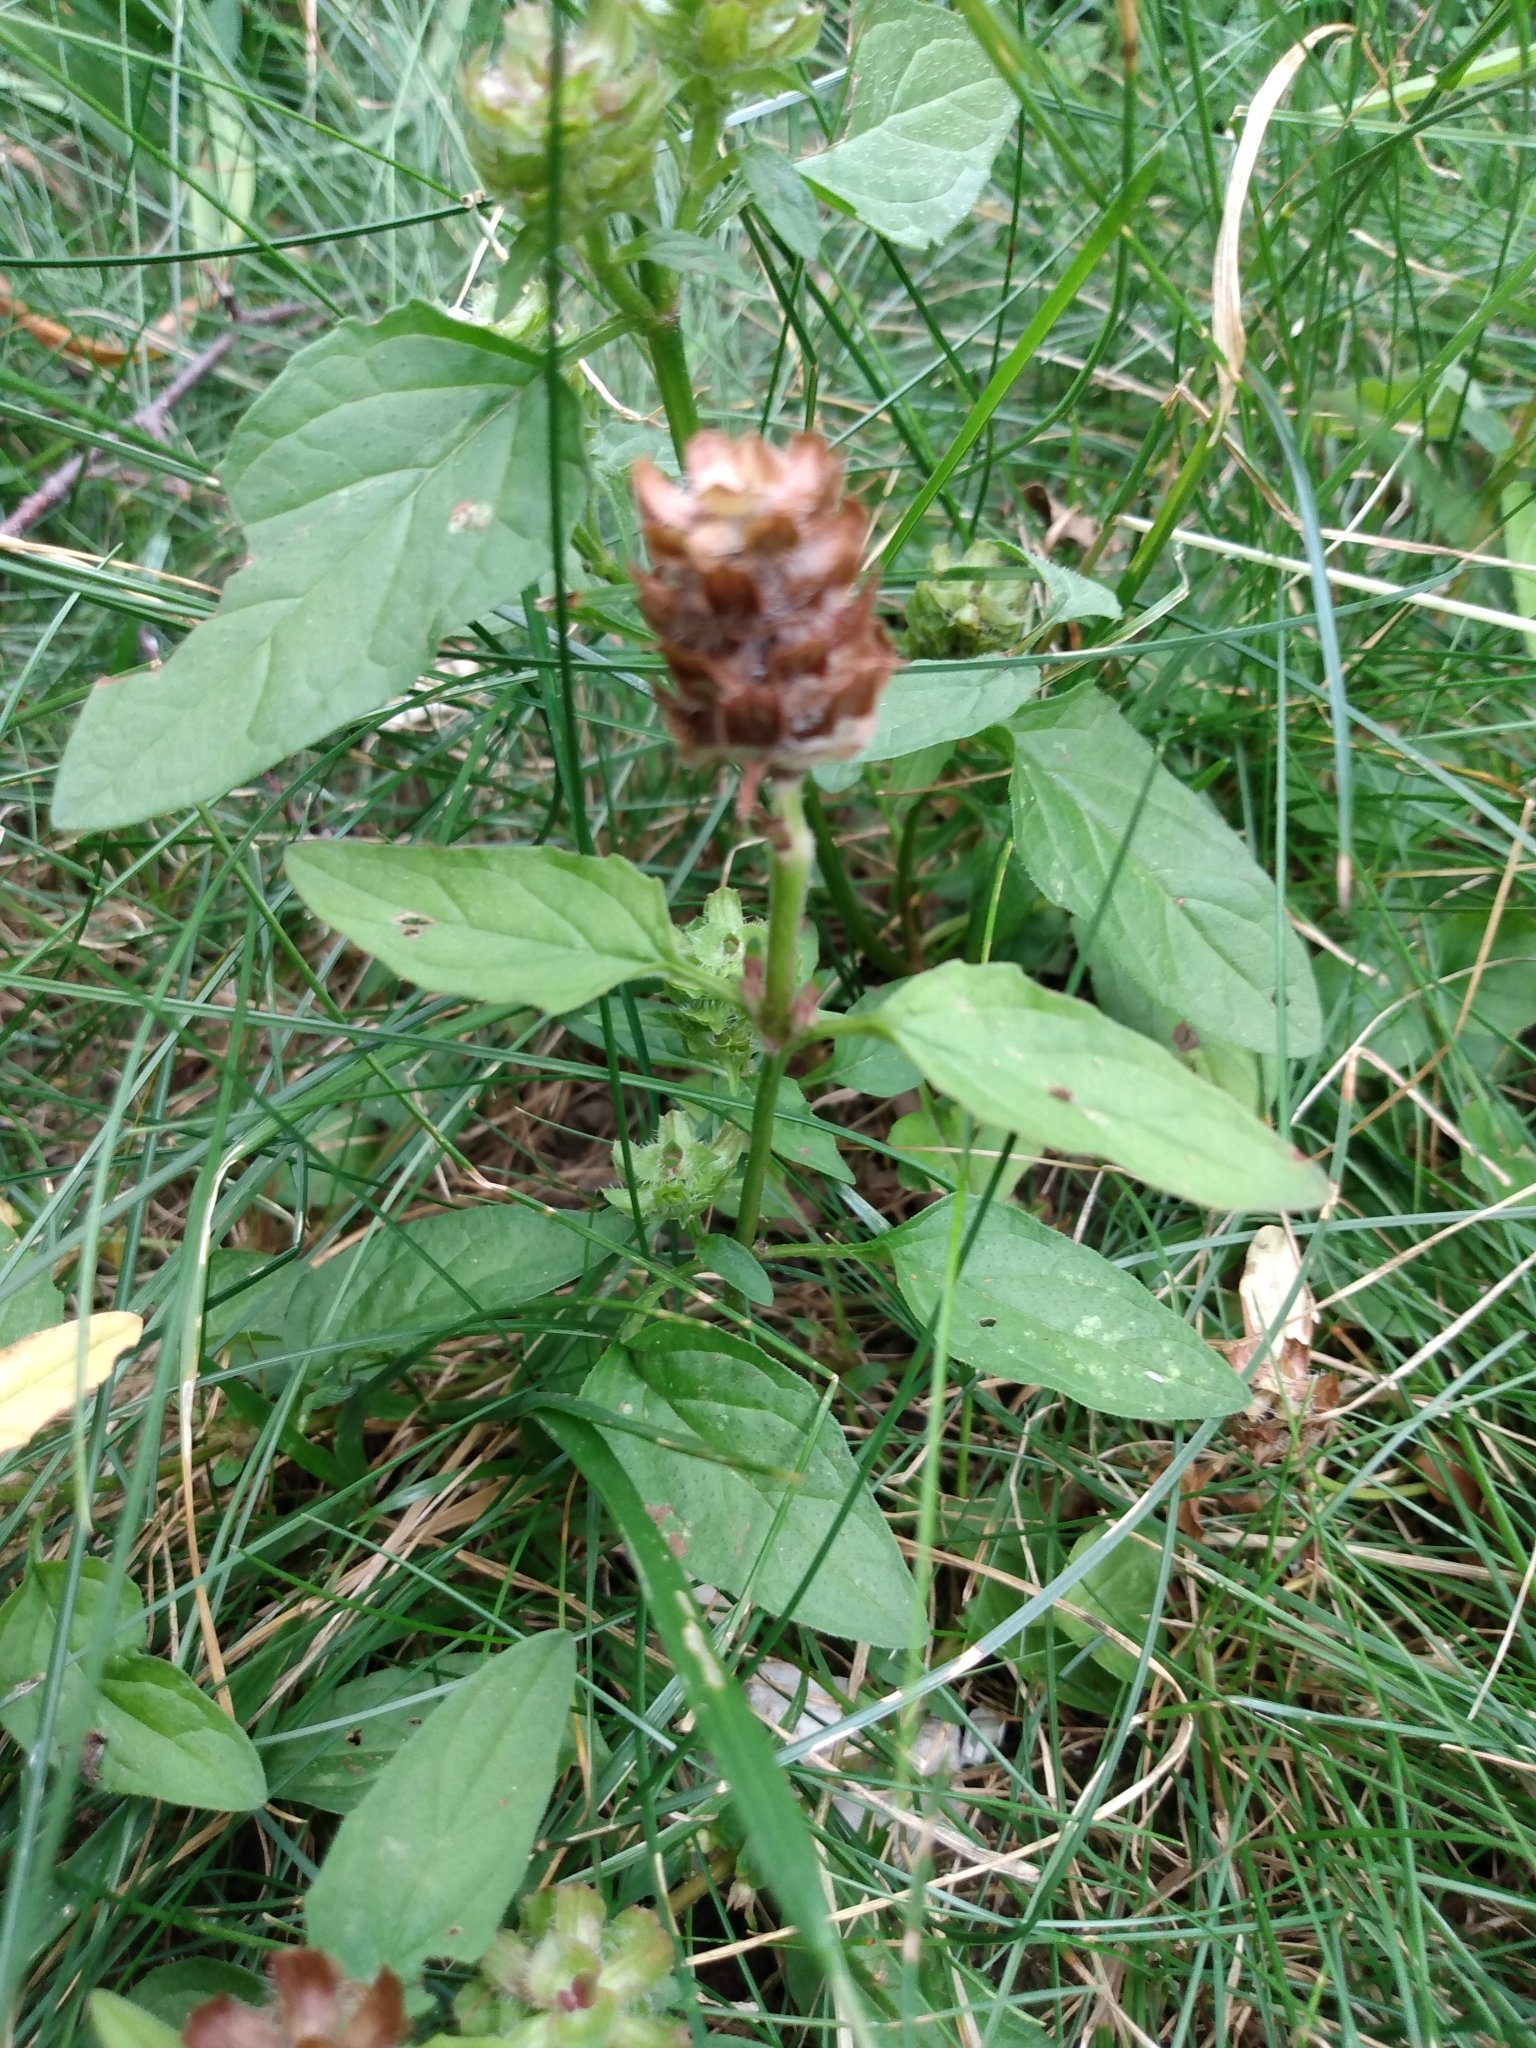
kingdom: Plantae
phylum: Tracheophyta
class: Magnoliopsida
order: Lamiales
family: Lamiaceae
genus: Prunella
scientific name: Prunella vulgaris
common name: Heal-all
